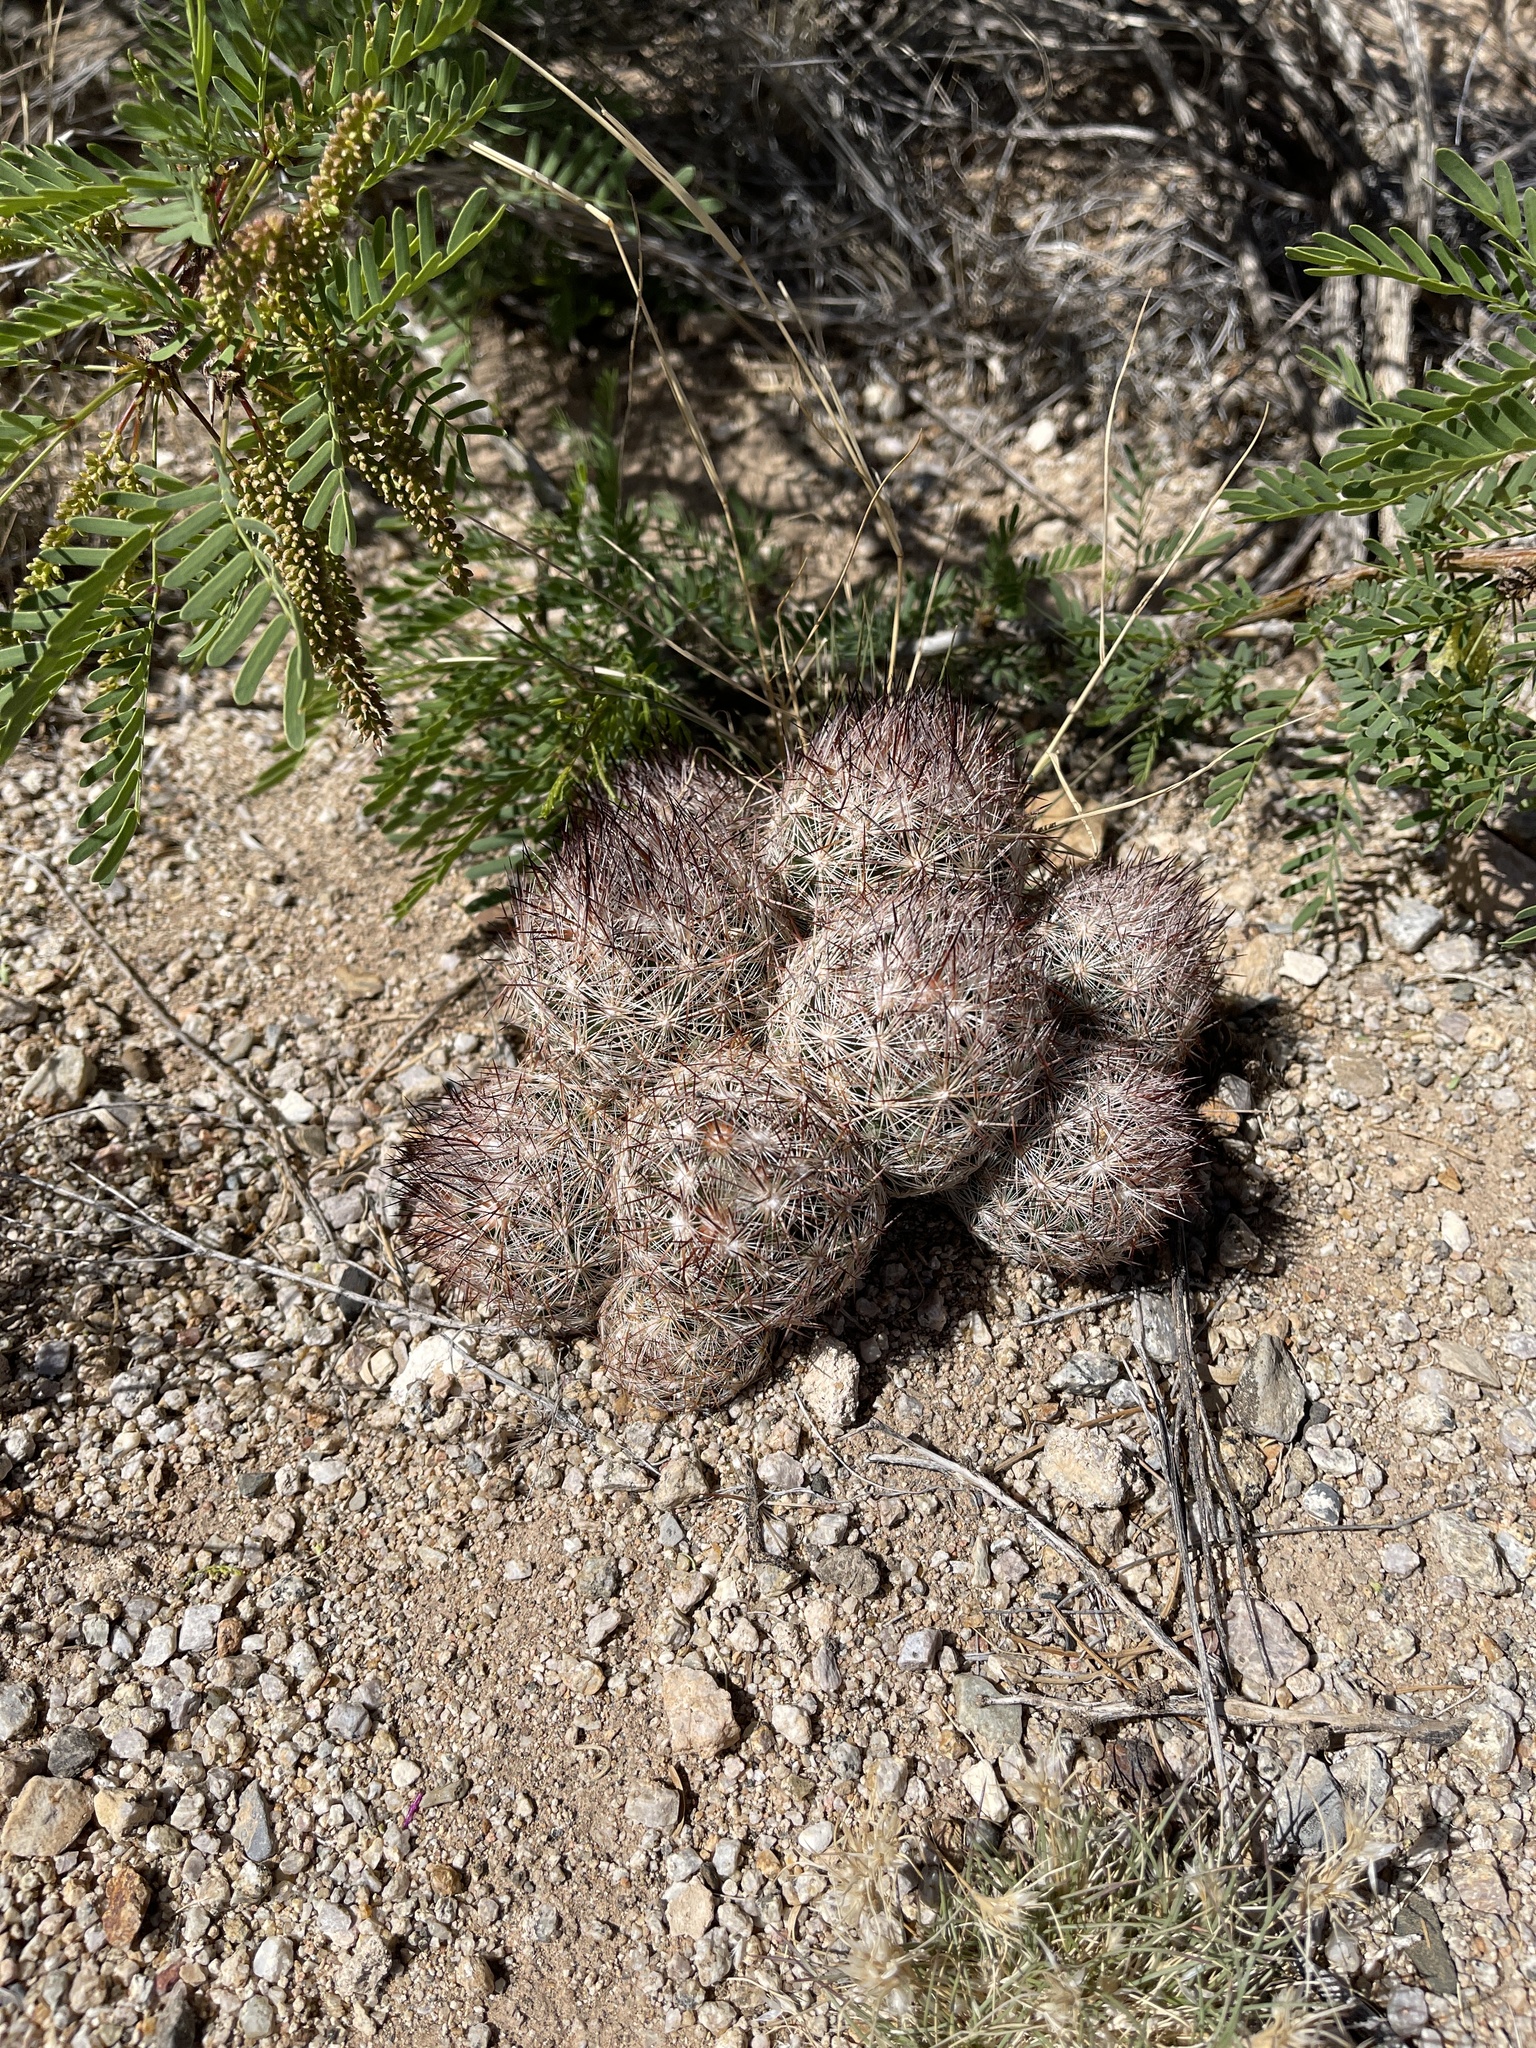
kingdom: Plantae
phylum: Tracheophyta
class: Magnoliopsida
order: Caryophyllales
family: Cactaceae
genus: Pelecyphora
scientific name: Pelecyphora vivipara
